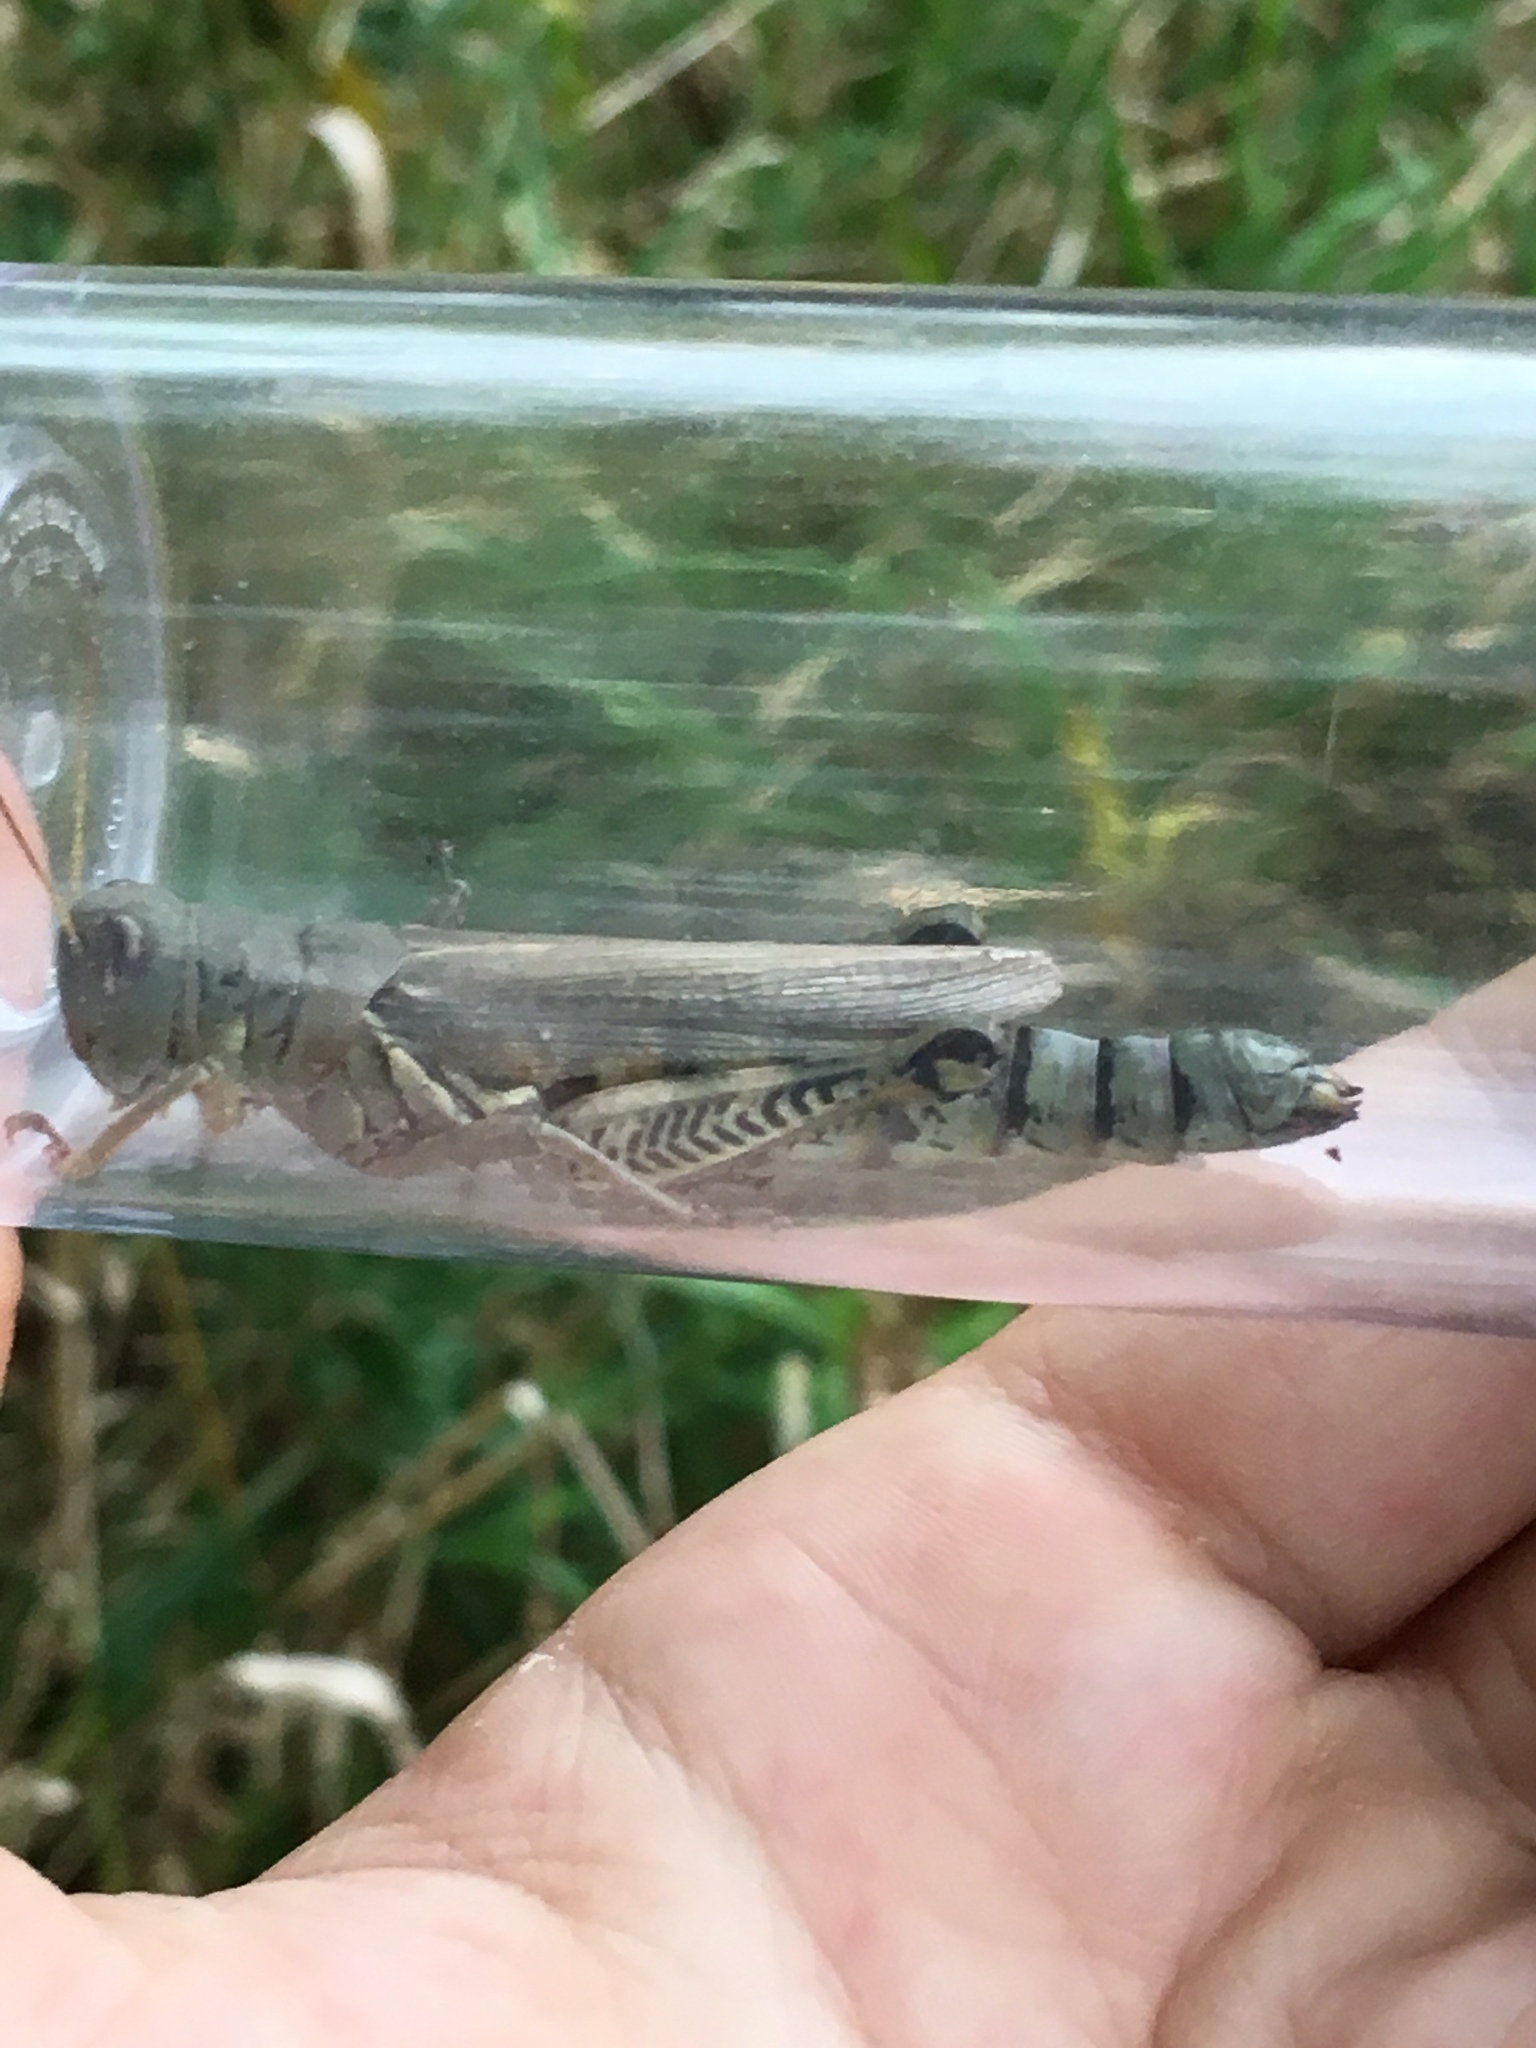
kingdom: Animalia
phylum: Arthropoda
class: Insecta
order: Orthoptera
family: Acrididae
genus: Melanoplus
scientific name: Melanoplus differentialis
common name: Differential grasshopper
